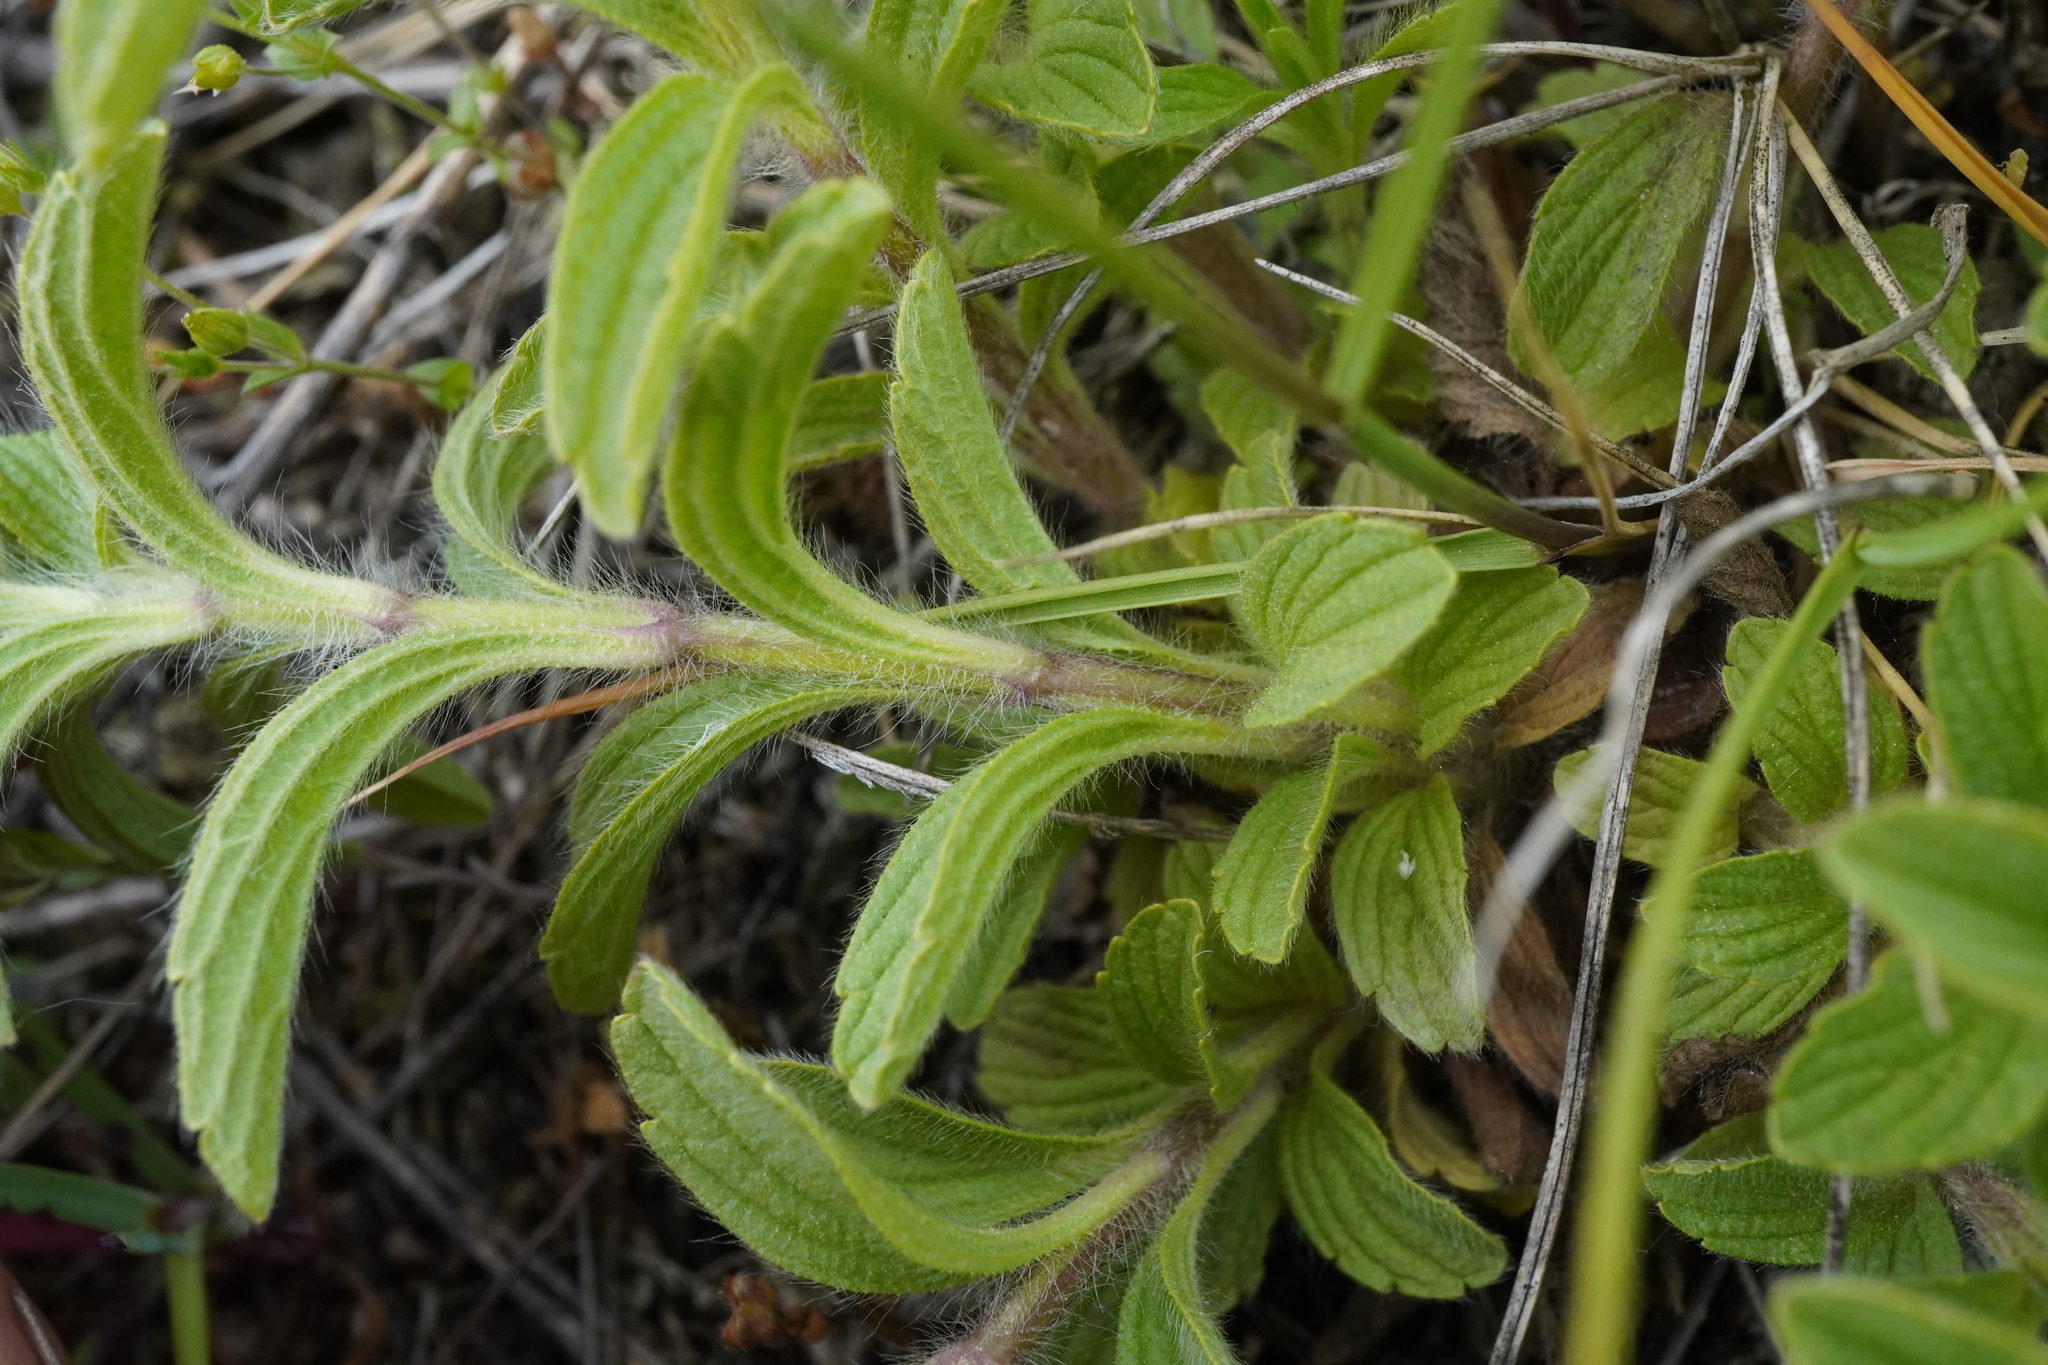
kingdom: Plantae
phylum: Tracheophyta
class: Magnoliopsida
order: Lamiales
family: Lamiaceae
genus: Sideritis
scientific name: Sideritis montana
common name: Mountain ironwort
